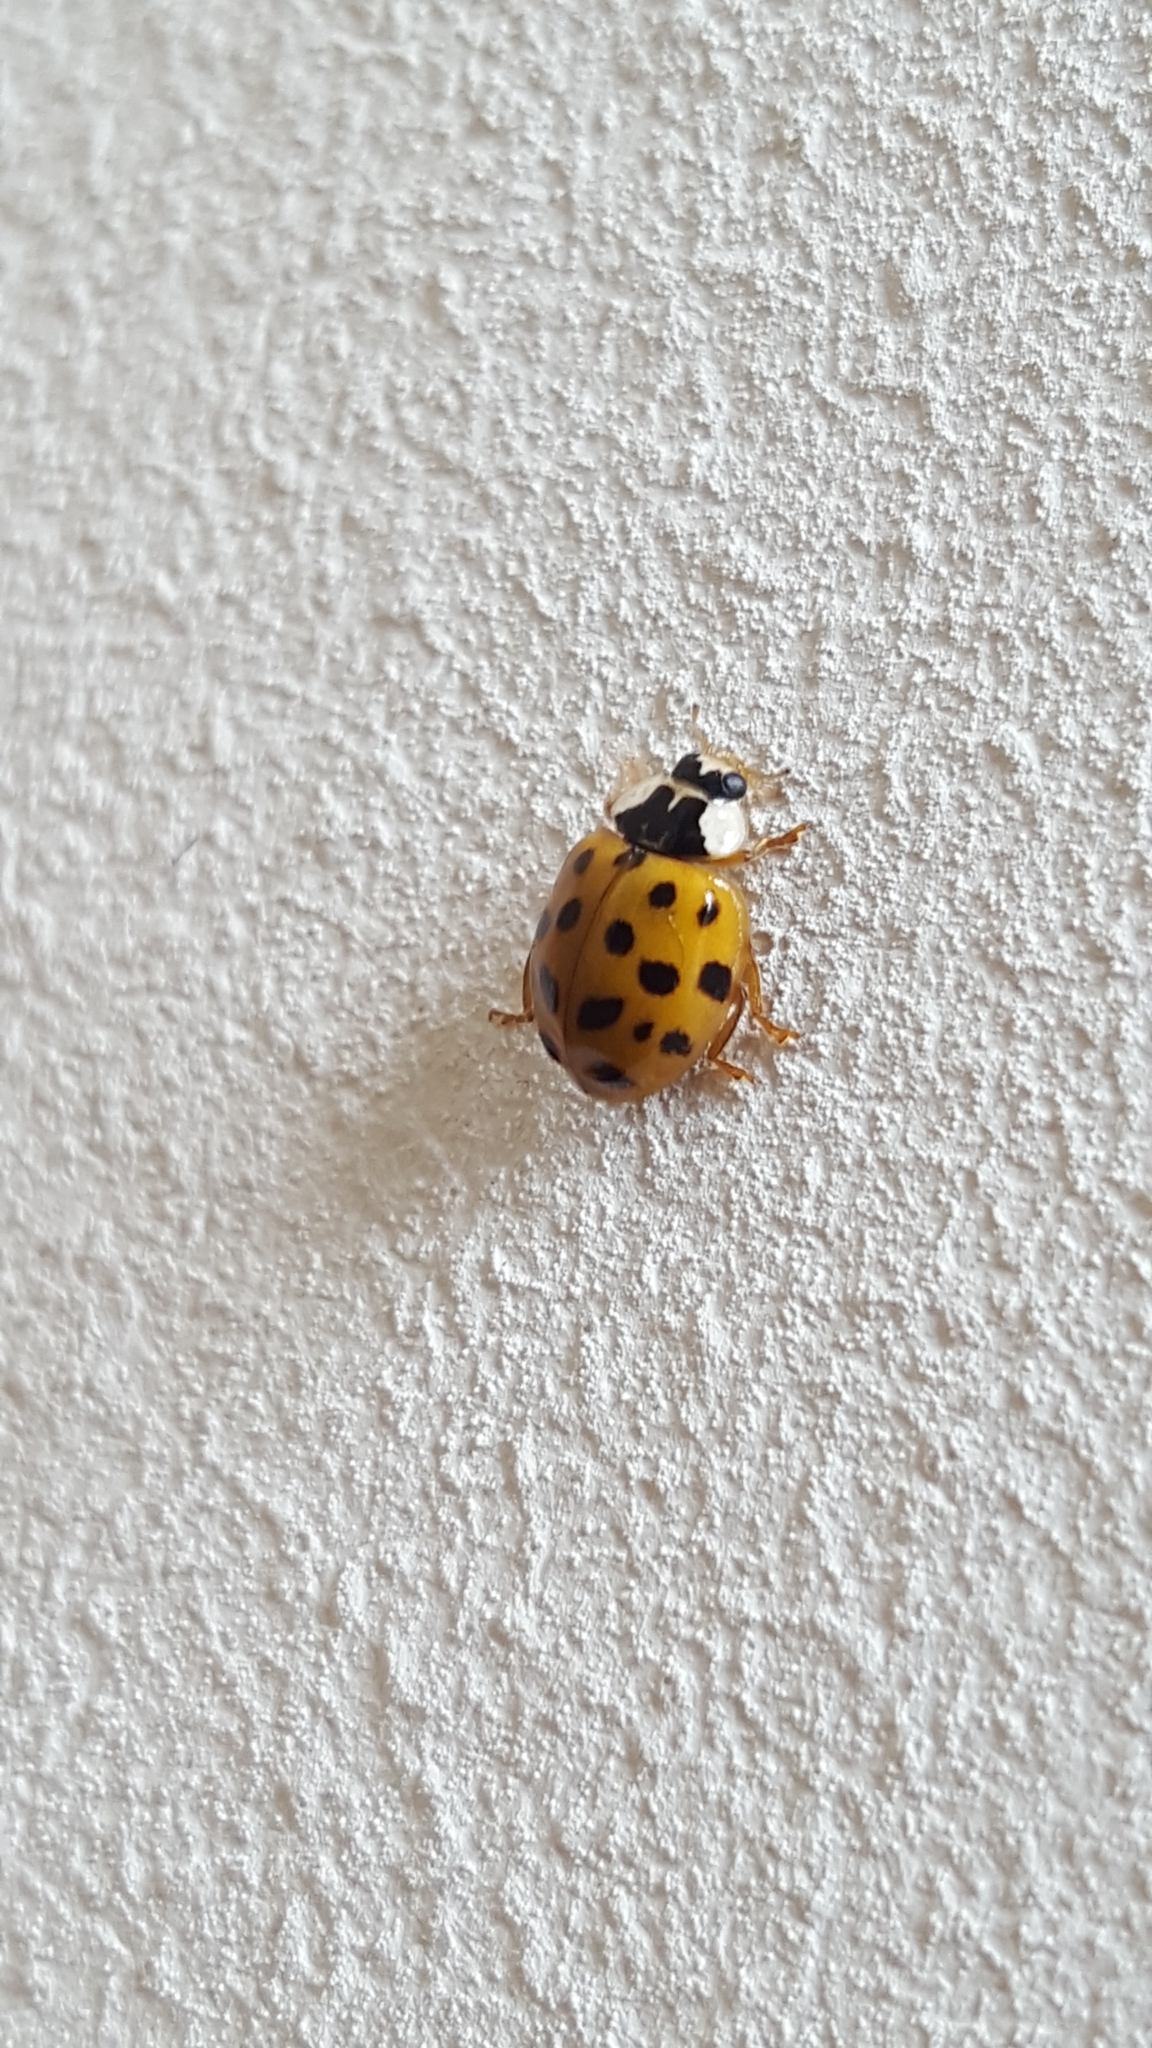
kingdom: Animalia
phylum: Arthropoda
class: Insecta
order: Coleoptera
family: Coccinellidae
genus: Harmonia
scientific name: Harmonia axyridis
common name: Harlequin ladybird
